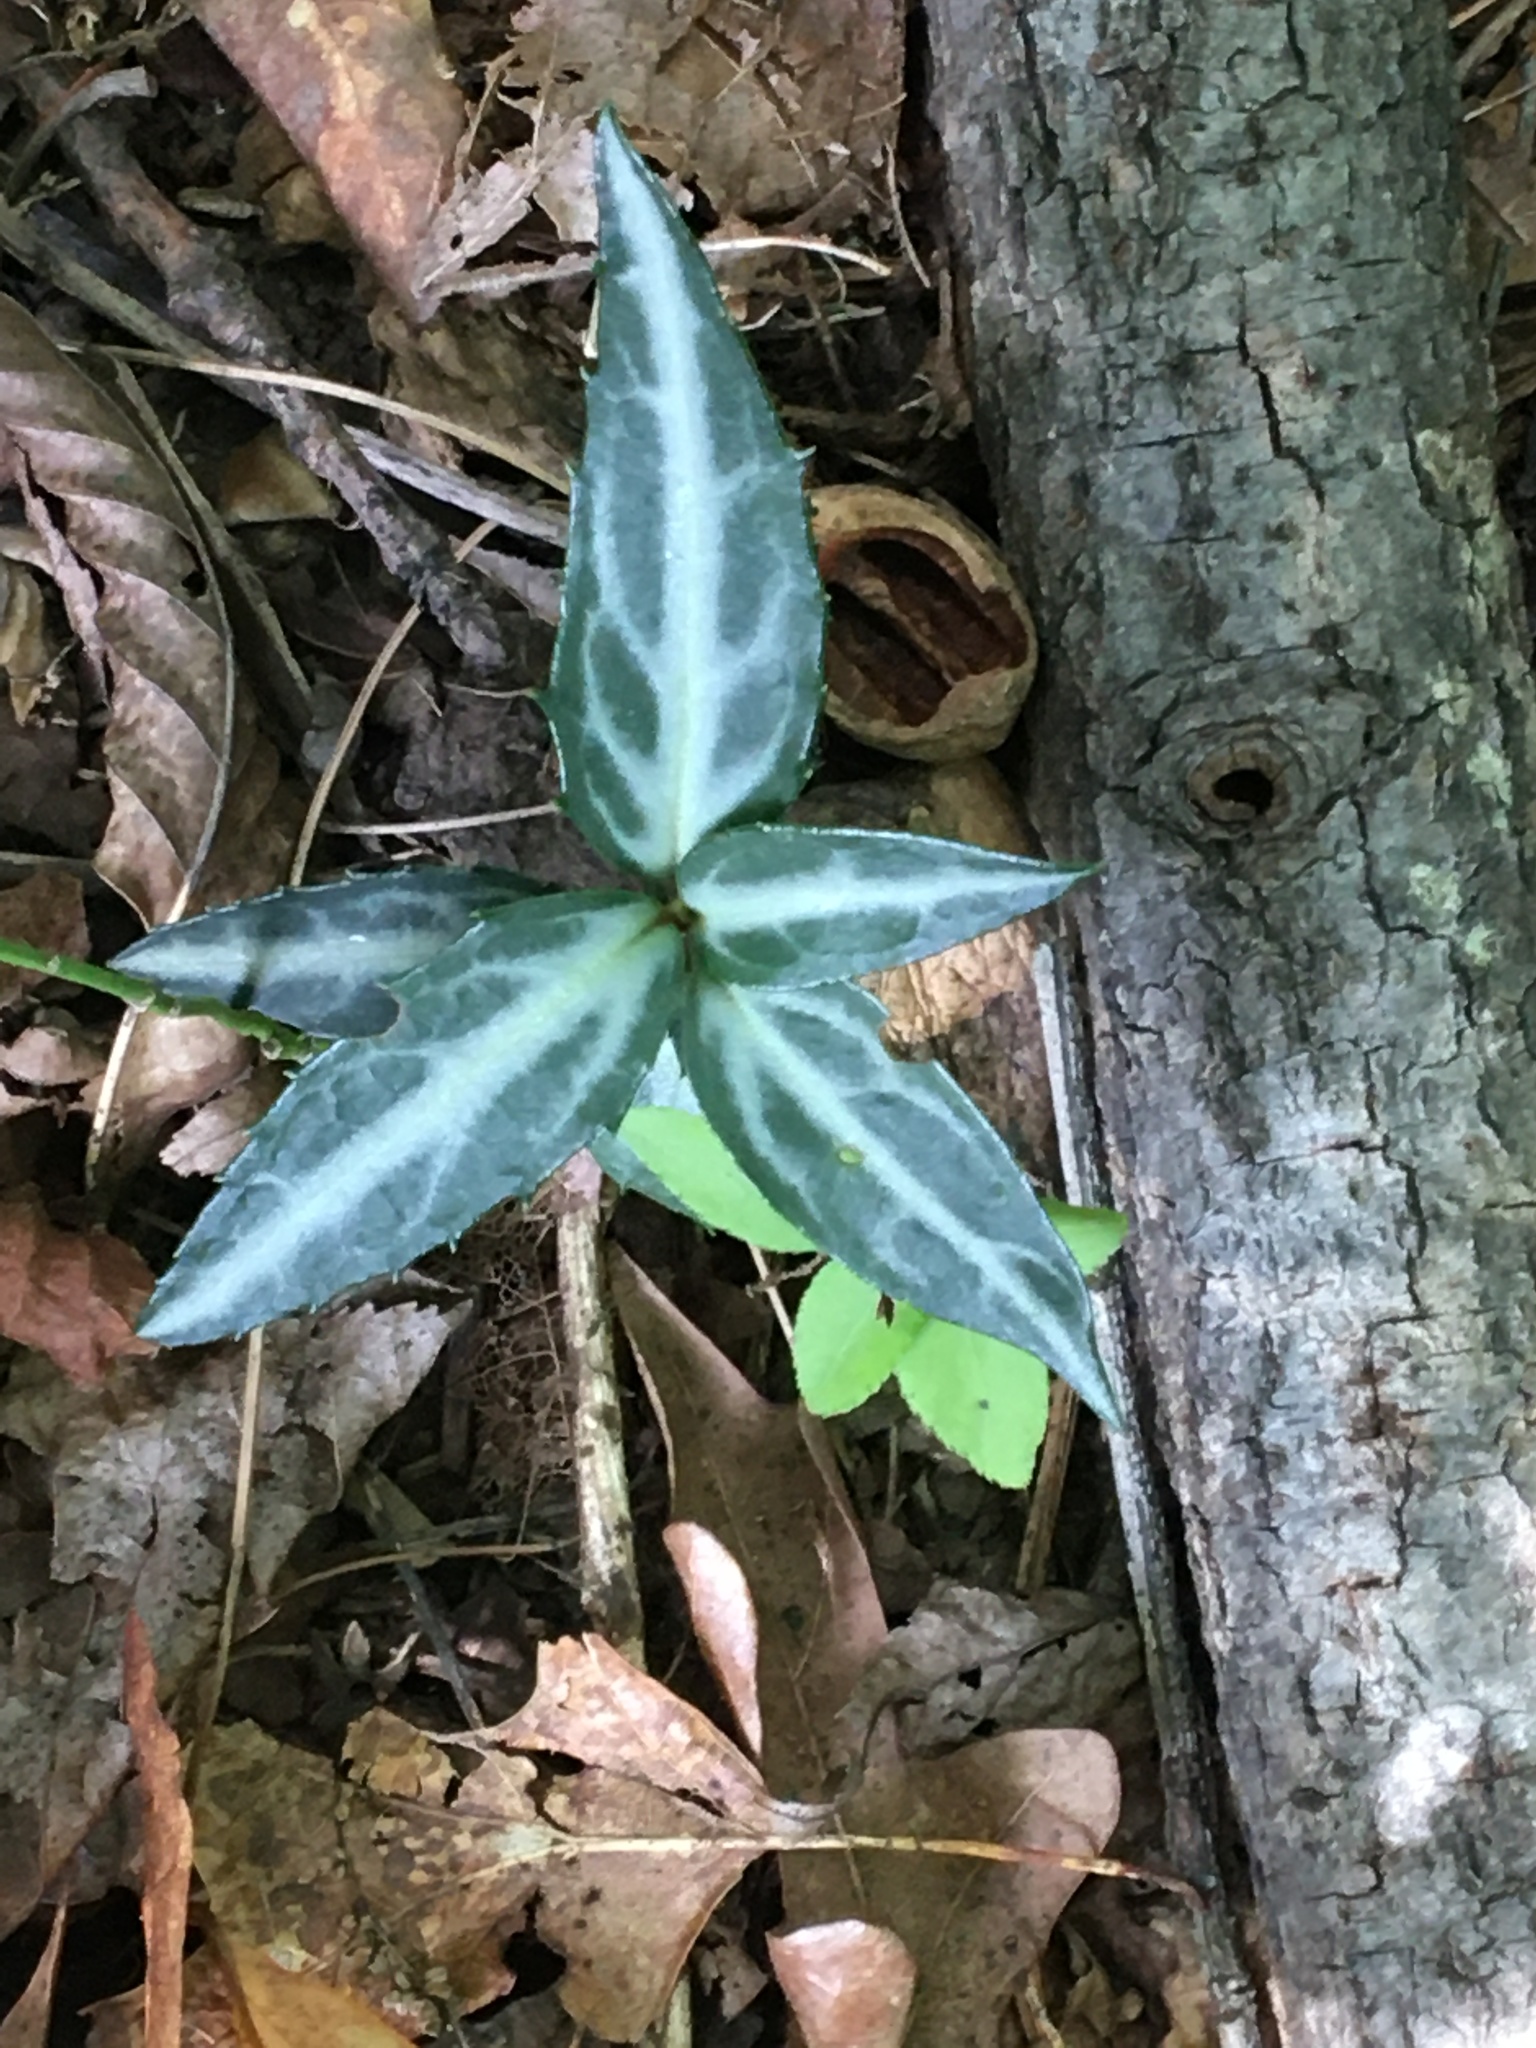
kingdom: Plantae
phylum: Tracheophyta
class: Magnoliopsida
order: Ericales
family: Ericaceae
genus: Chimaphila
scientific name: Chimaphila maculata
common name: Spotted pipsissewa
